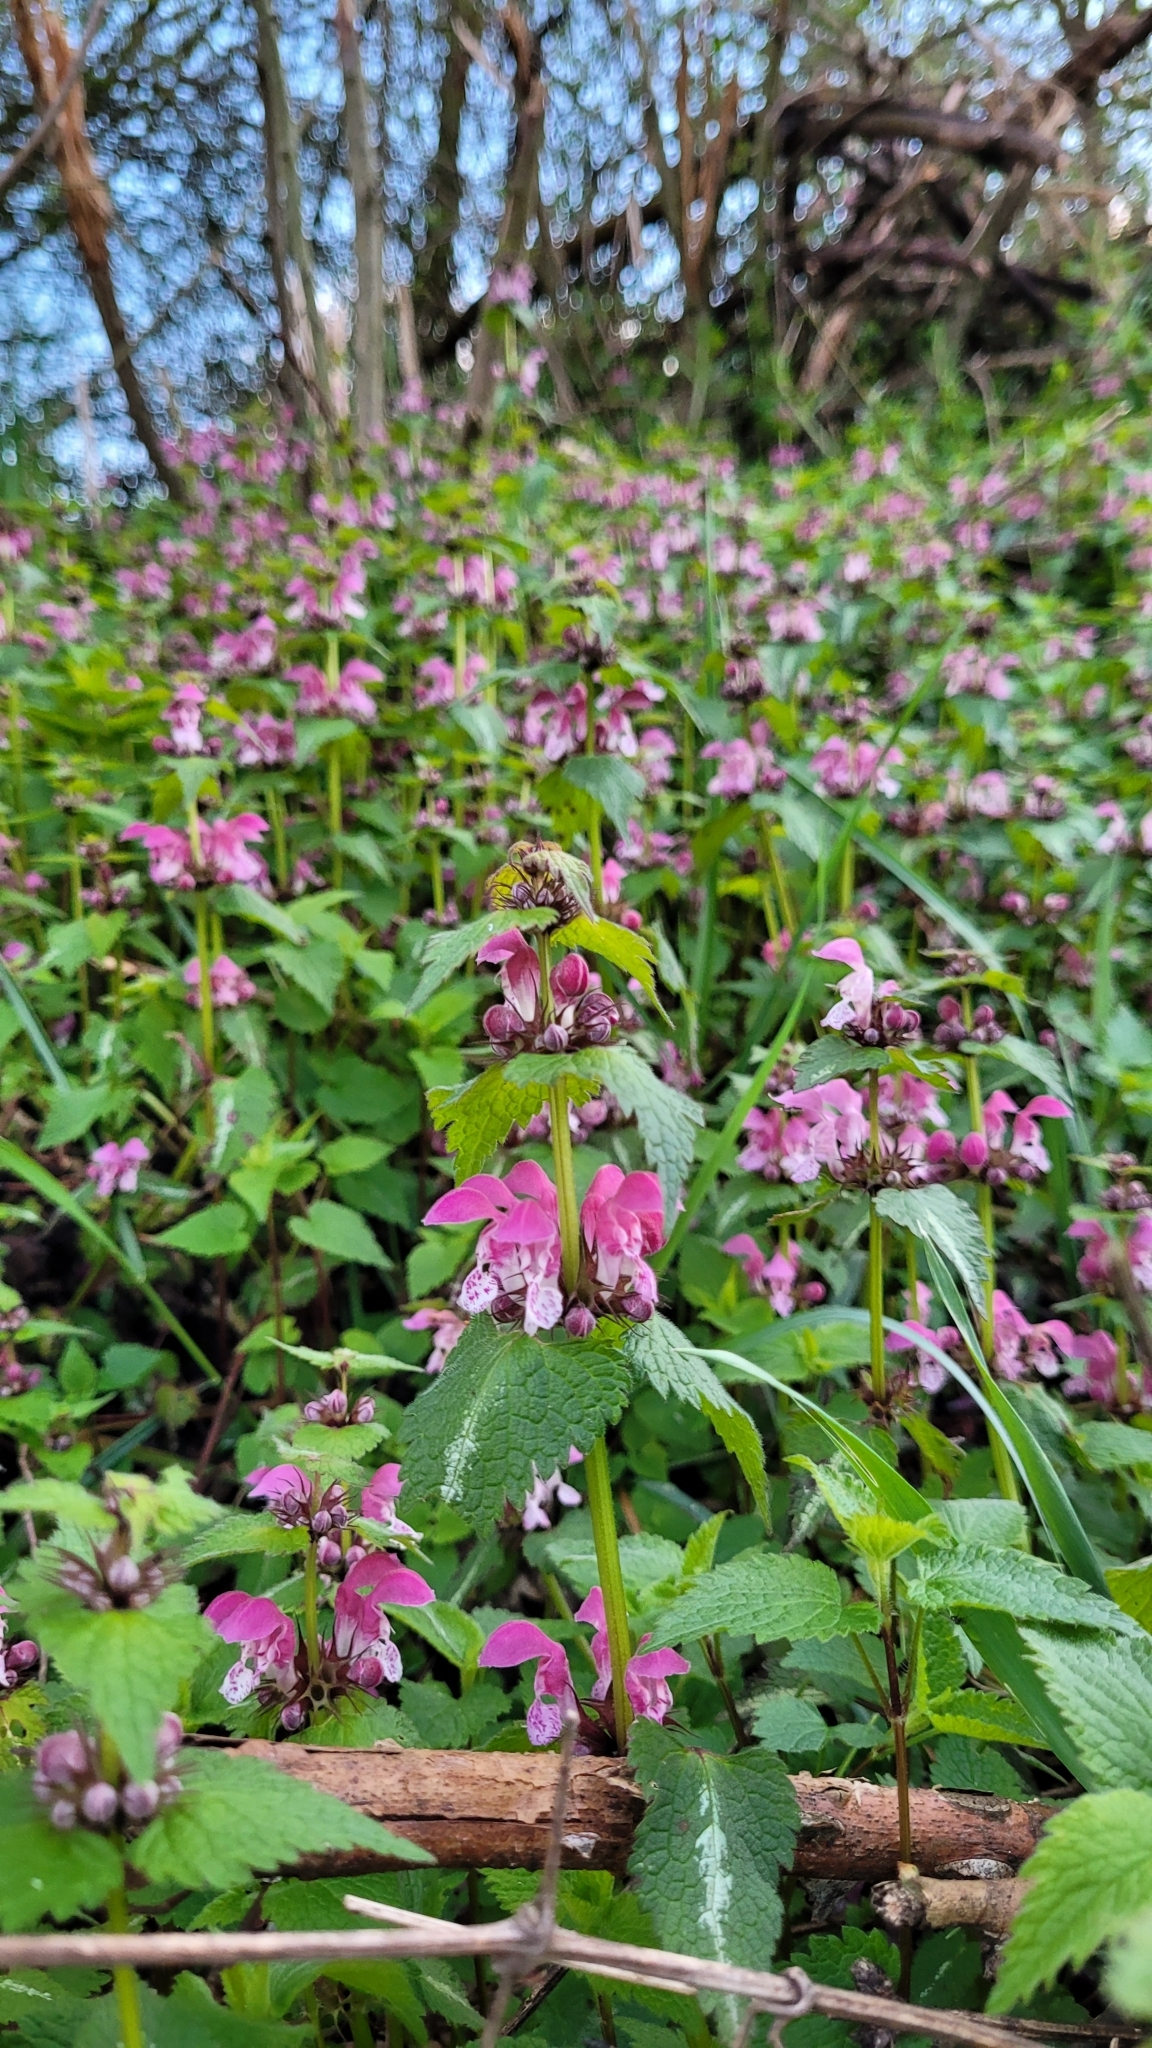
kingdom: Plantae
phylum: Tracheophyta
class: Magnoliopsida
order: Lamiales
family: Lamiaceae
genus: Lamium
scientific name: Lamium maculatum
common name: Spotted dead-nettle
